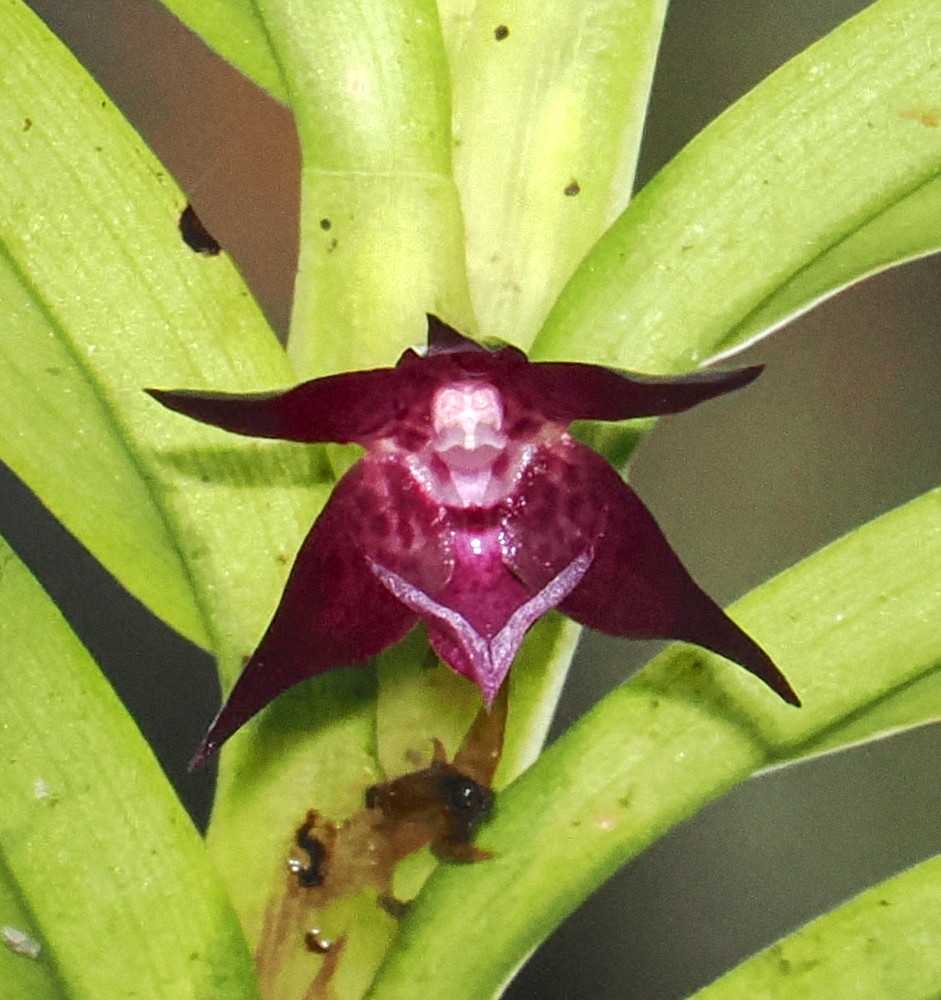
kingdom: Plantae
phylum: Tracheophyta
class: Liliopsida
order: Asparagales
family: Orchidaceae
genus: Dichaea
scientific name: Dichaea rubroviolacea
